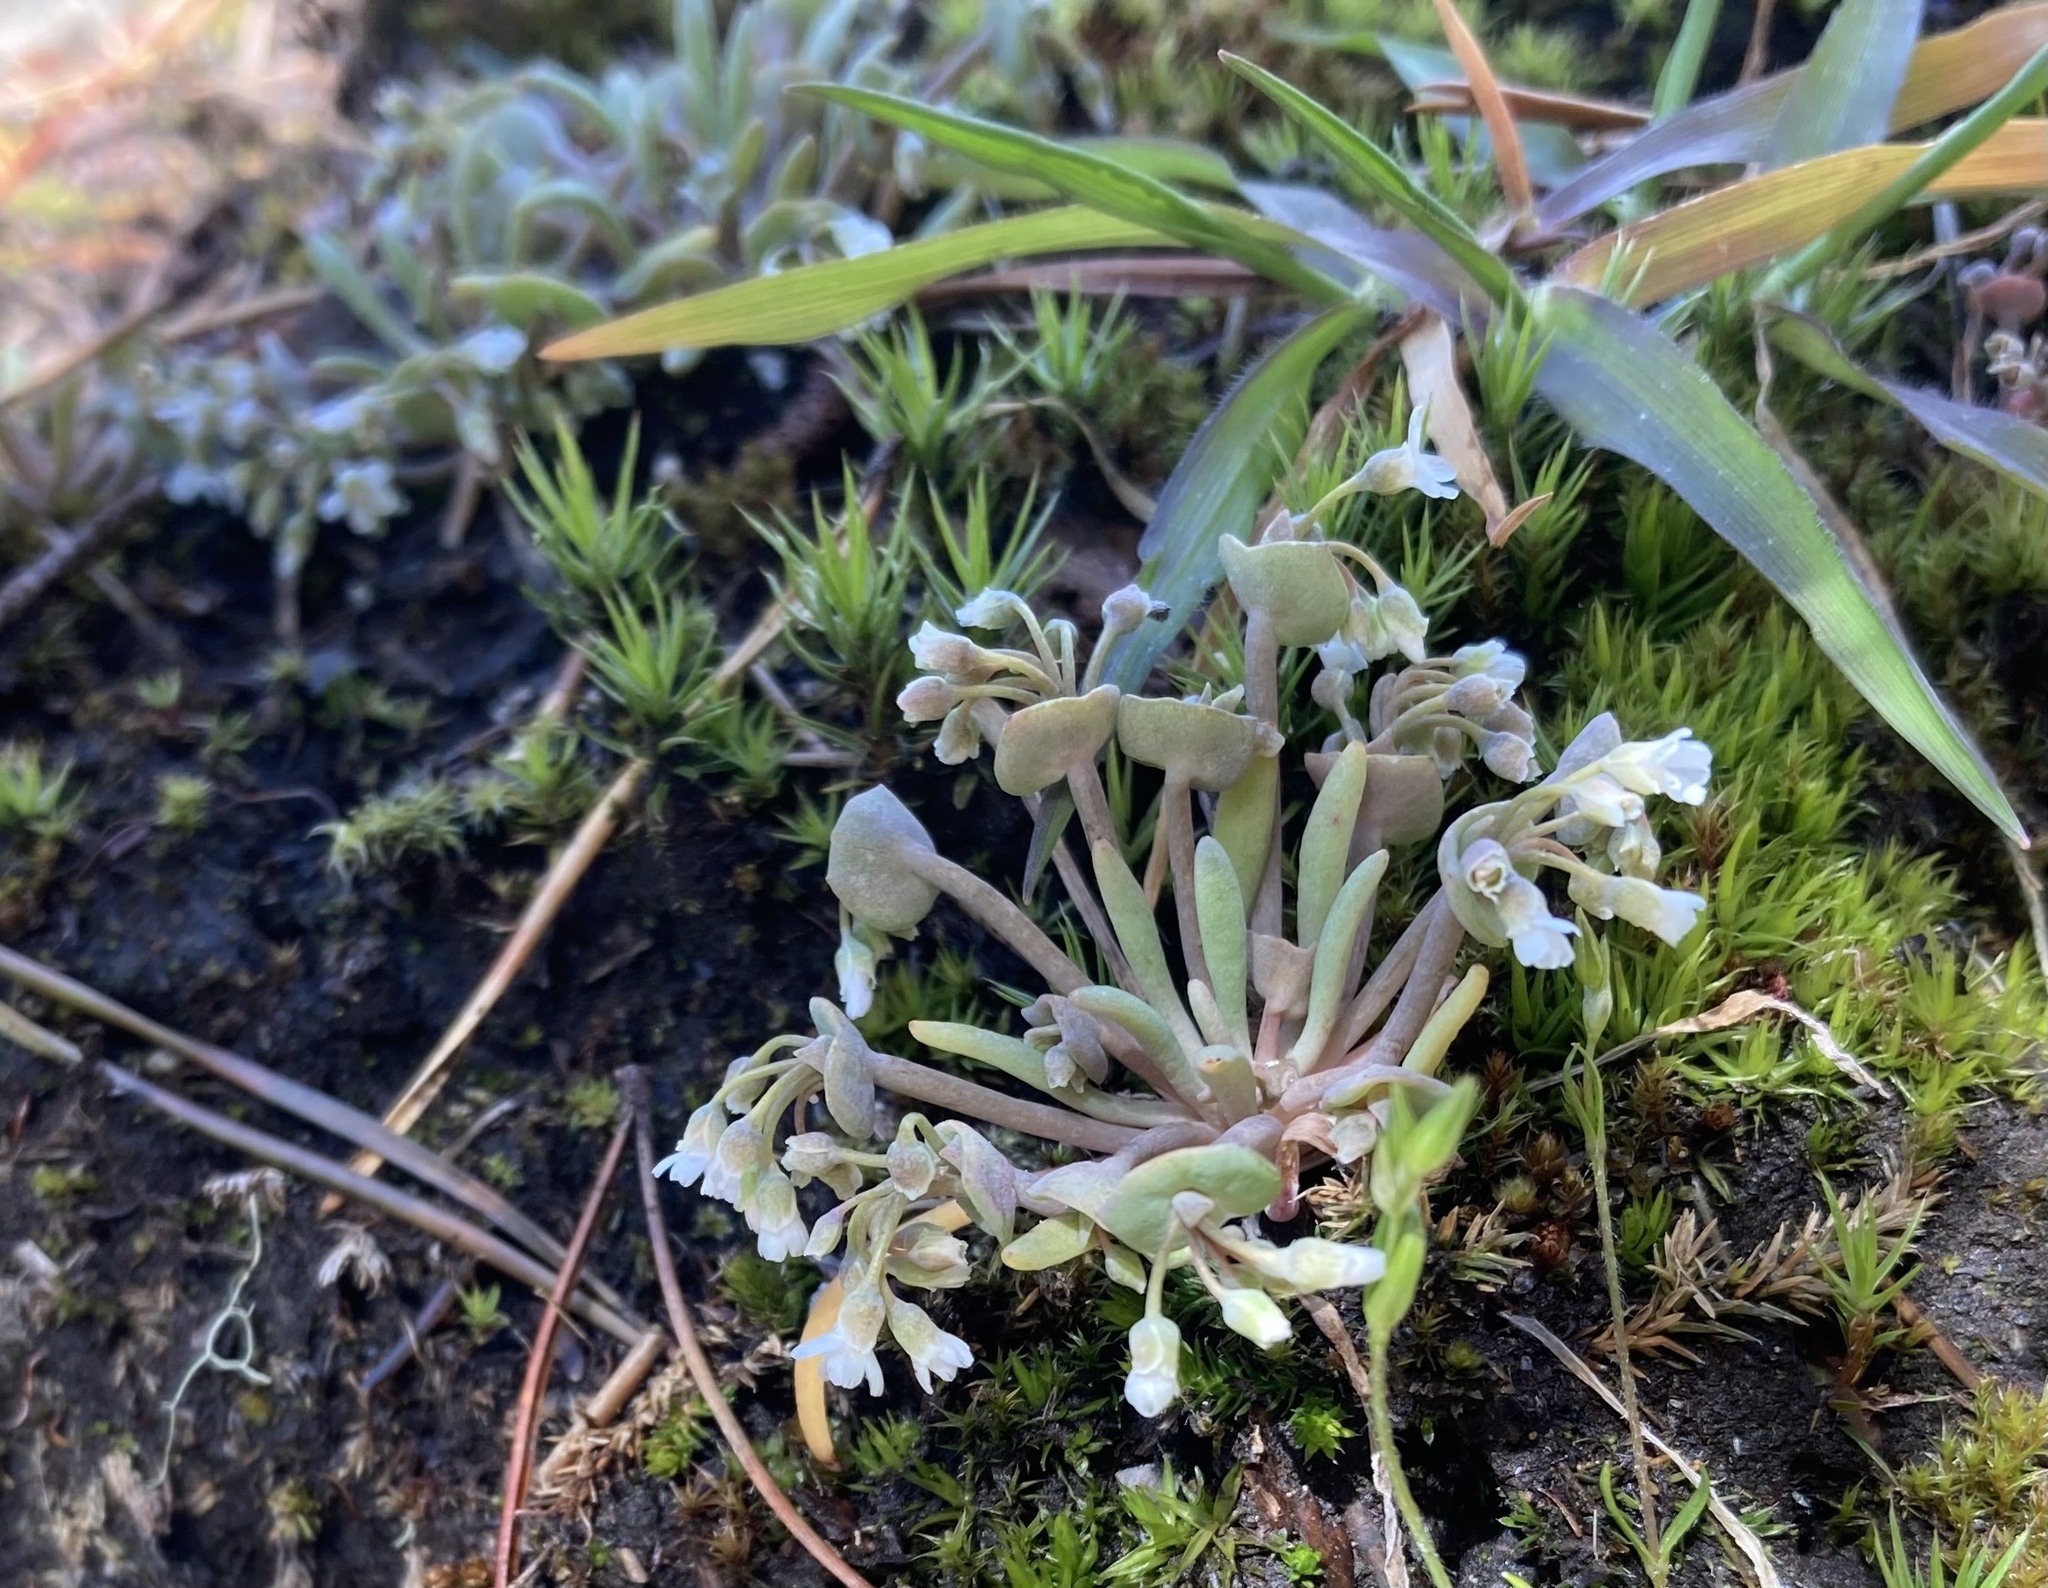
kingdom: Plantae
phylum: Tracheophyta
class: Magnoliopsida
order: Caryophyllales
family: Montiaceae
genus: Claytonia
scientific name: Claytonia exigua
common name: Pale spring beauty
